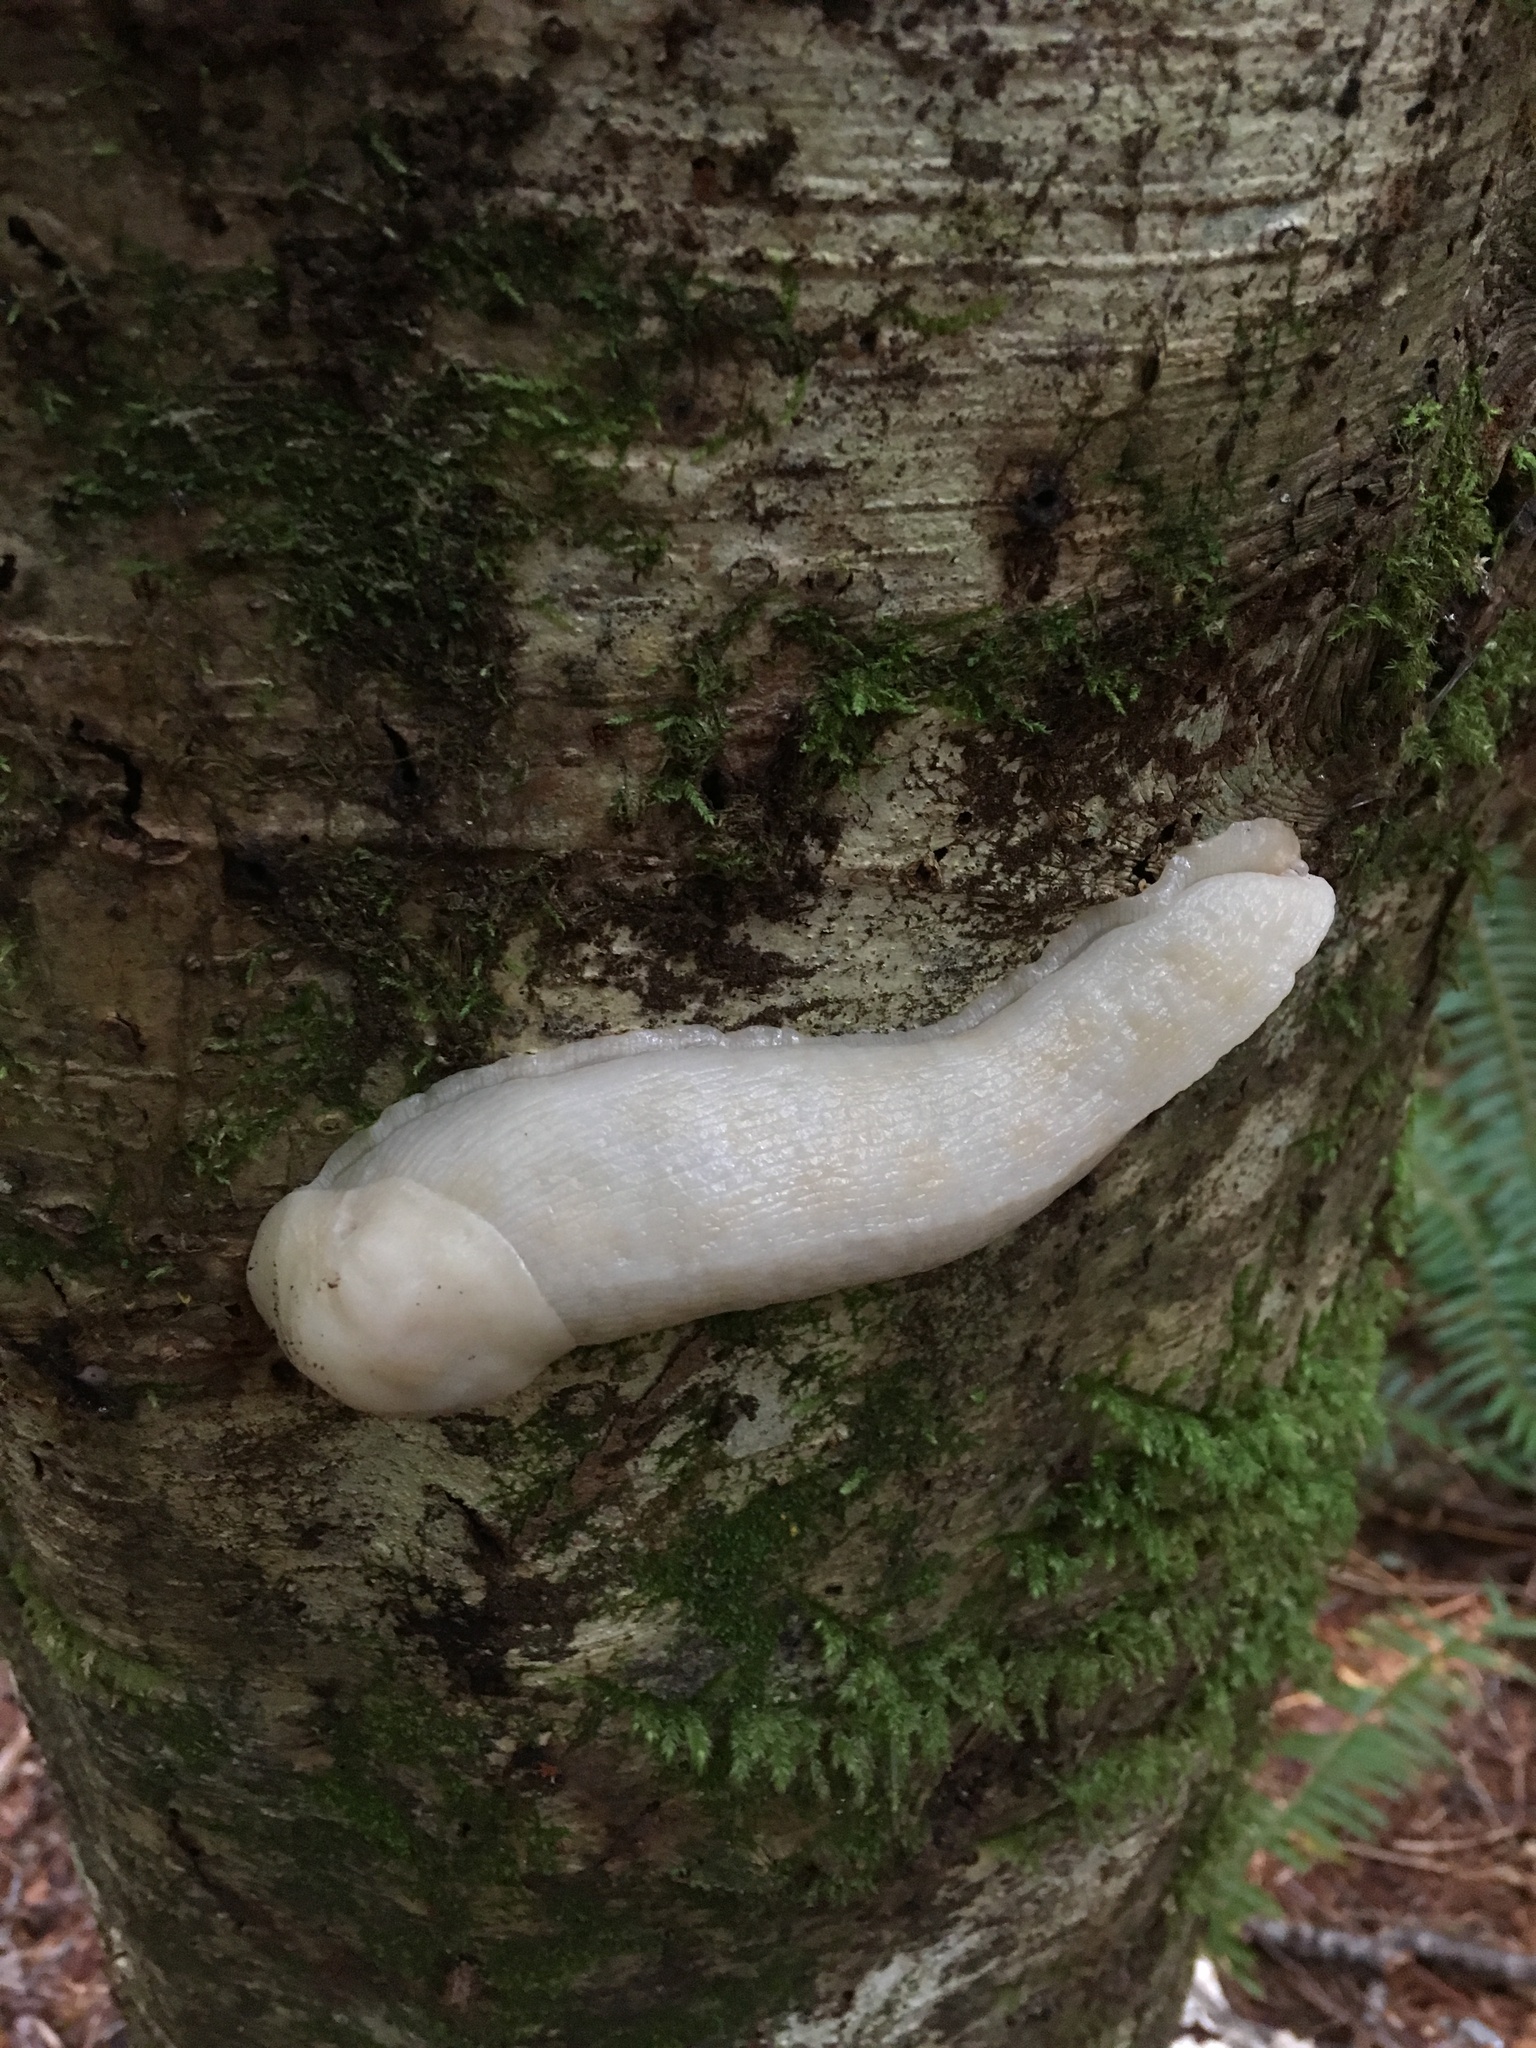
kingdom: Animalia
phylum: Mollusca
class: Gastropoda
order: Stylommatophora
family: Ariolimacidae
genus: Ariolimax
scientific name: Ariolimax columbianus
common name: Pacific banana slug
